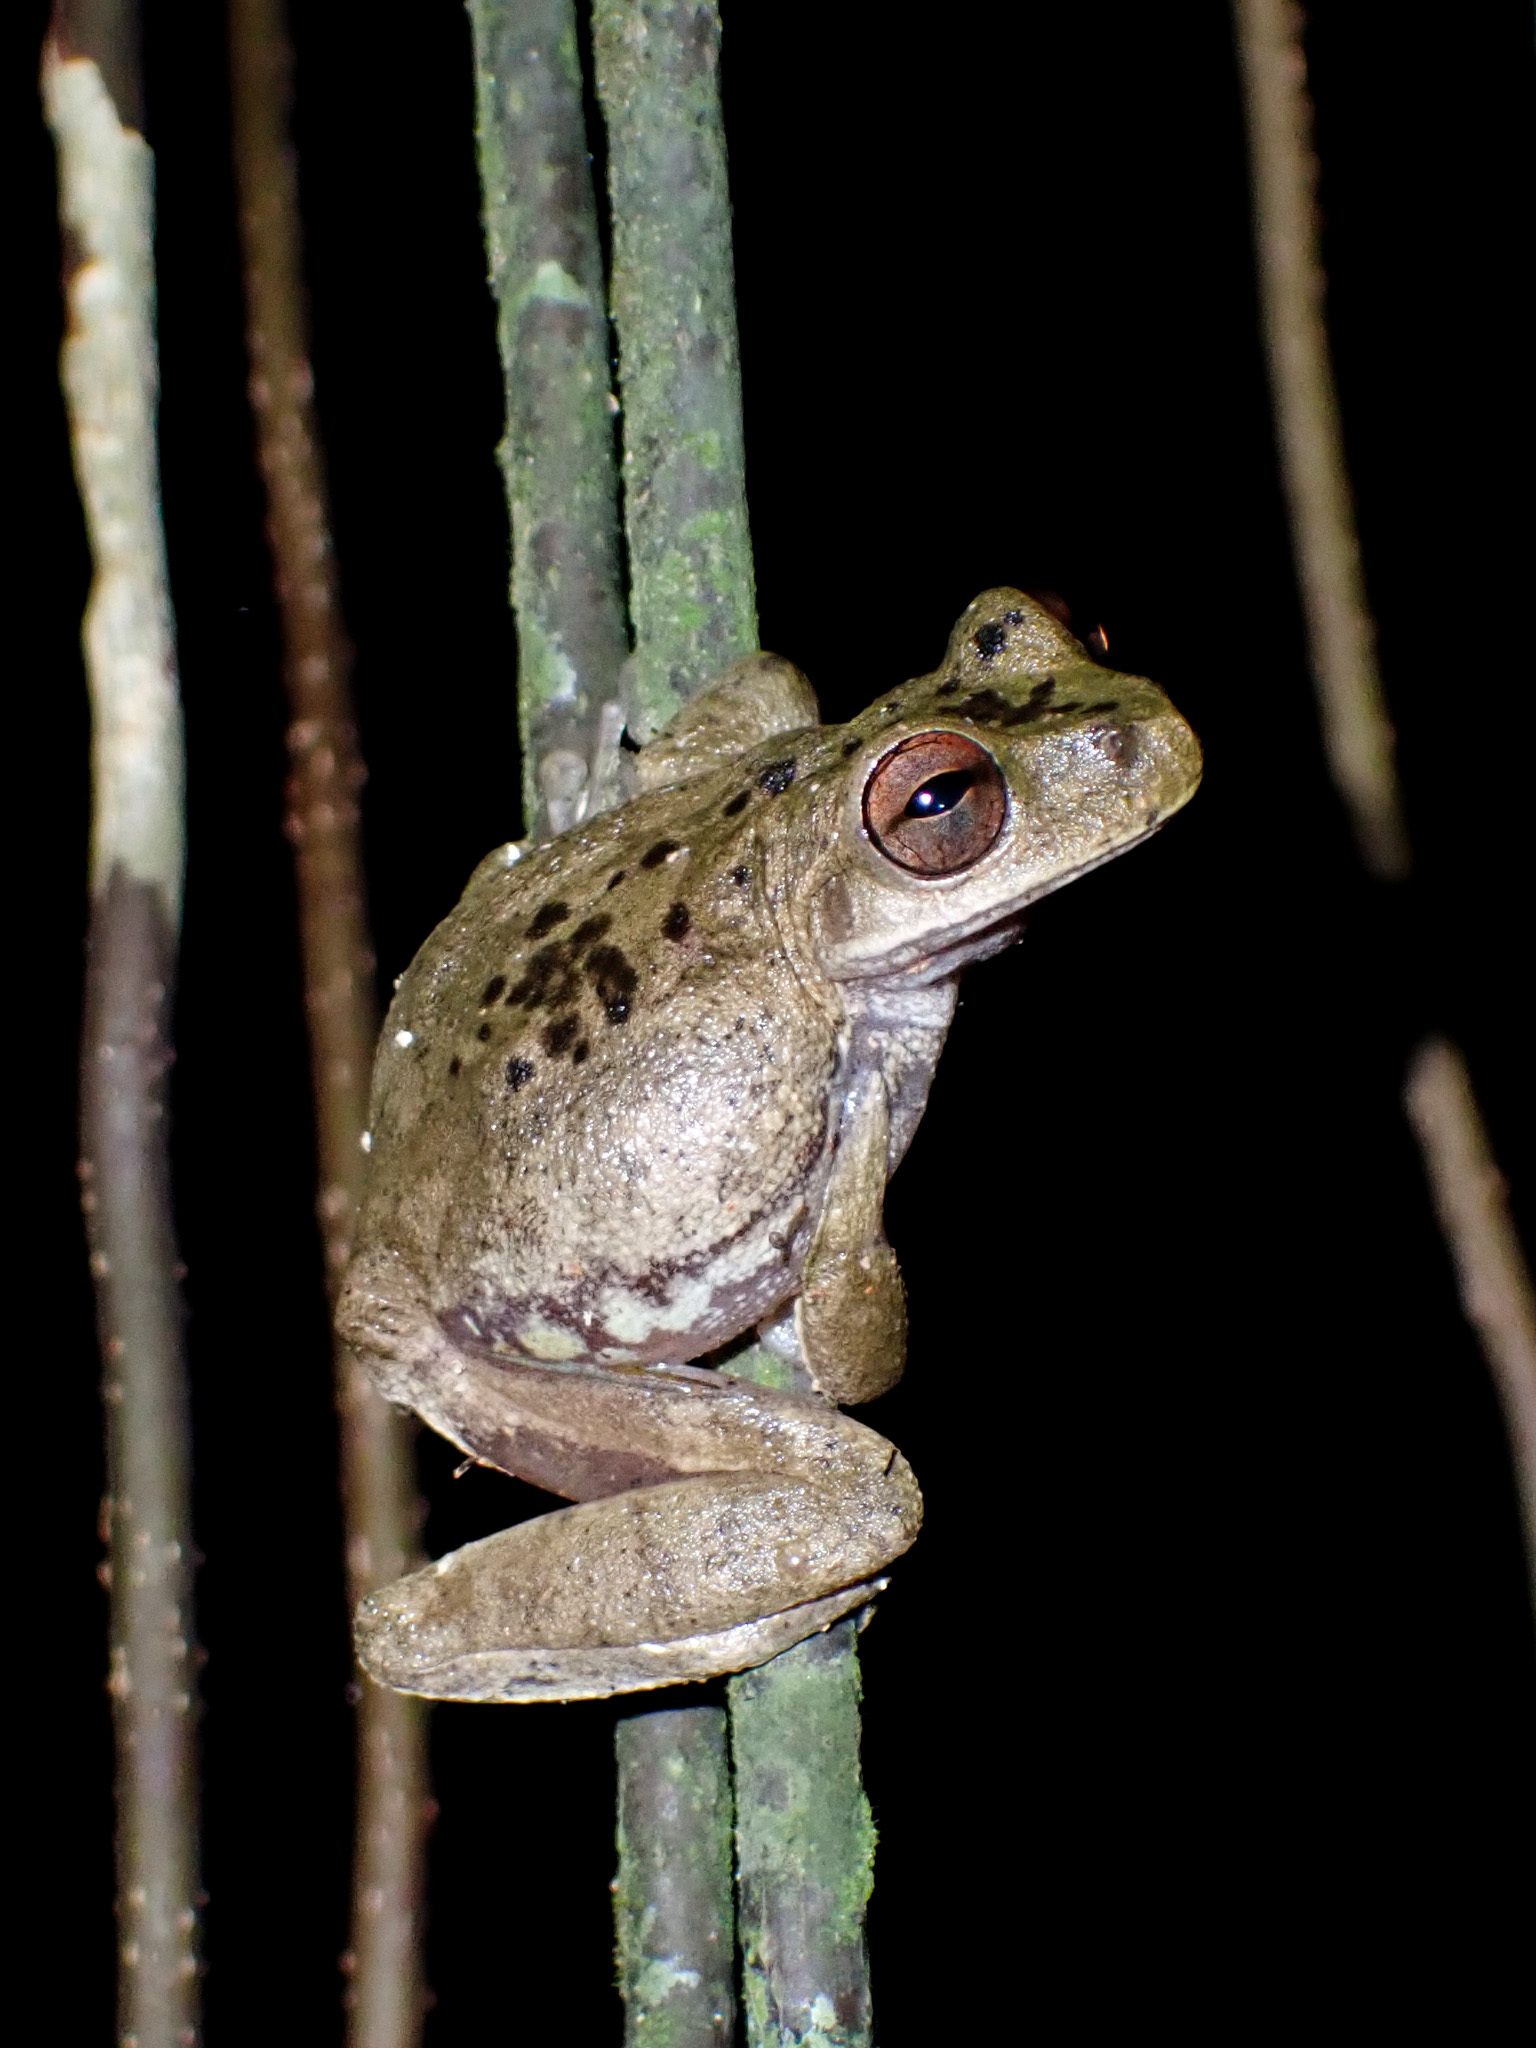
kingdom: Animalia
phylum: Chordata
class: Amphibia
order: Anura
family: Hylidae
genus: Atlantihyla
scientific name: Atlantihyla spinipollex
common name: Ceiba stream frog
